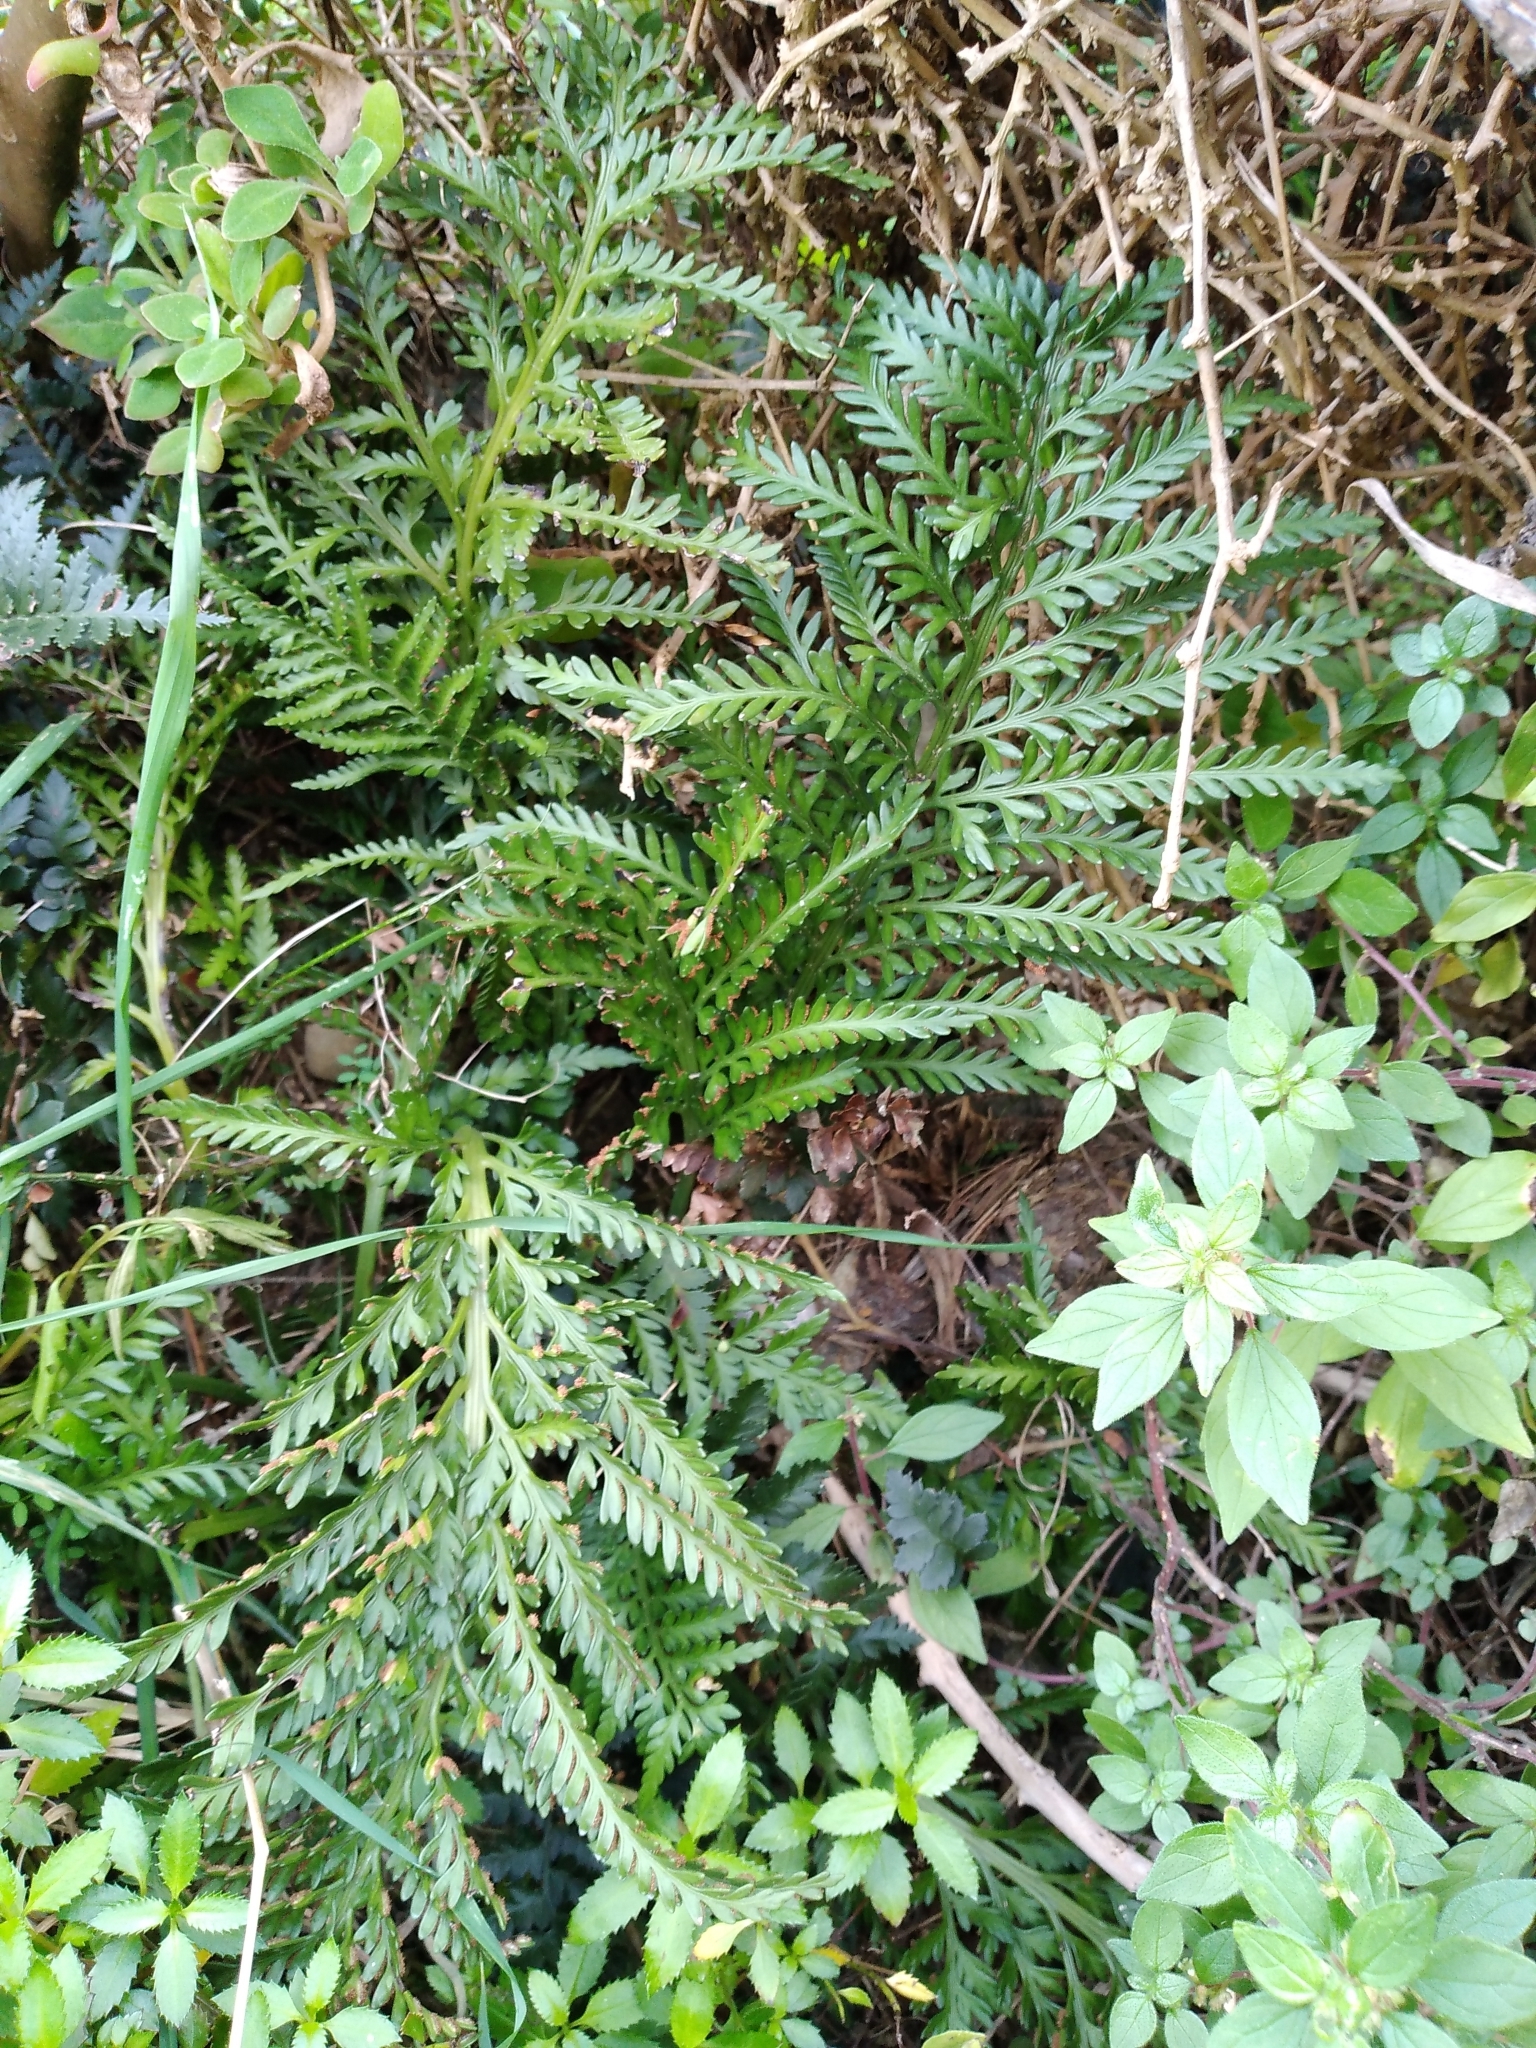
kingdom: Plantae
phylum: Tracheophyta
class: Polypodiopsida
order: Polypodiales
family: Aspleniaceae
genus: Asplenium
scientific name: Asplenium appendiculatum
